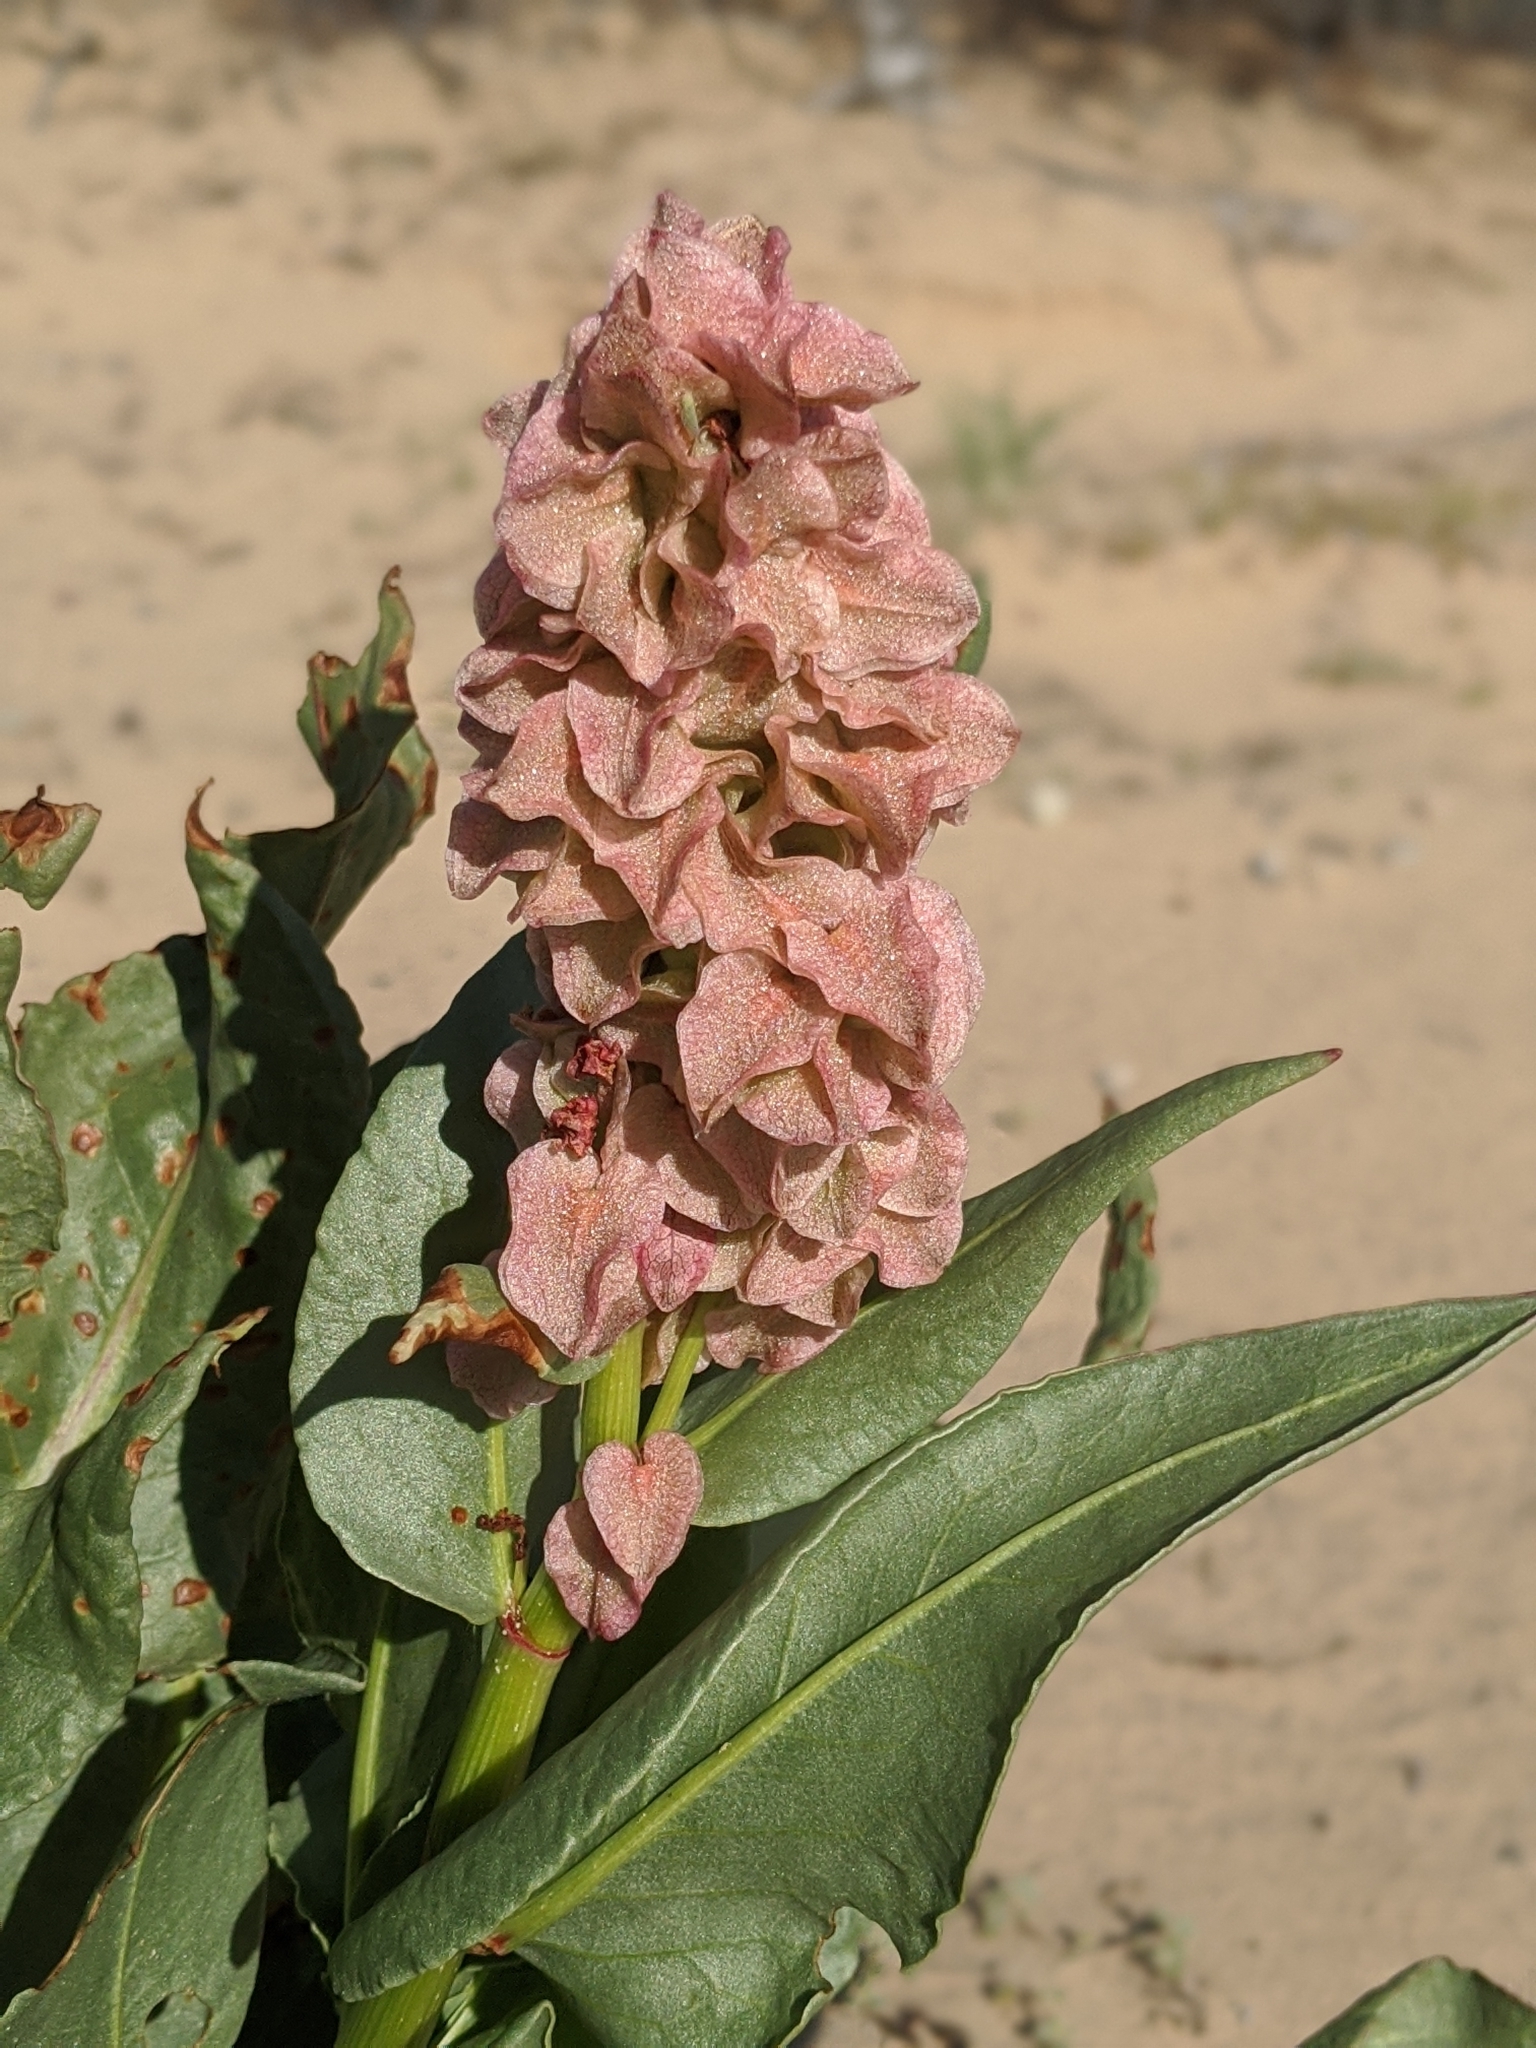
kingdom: Plantae
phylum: Tracheophyta
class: Magnoliopsida
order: Caryophyllales
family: Polygonaceae
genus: Rumex
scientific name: Rumex hymenosepalus
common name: Ganagra
